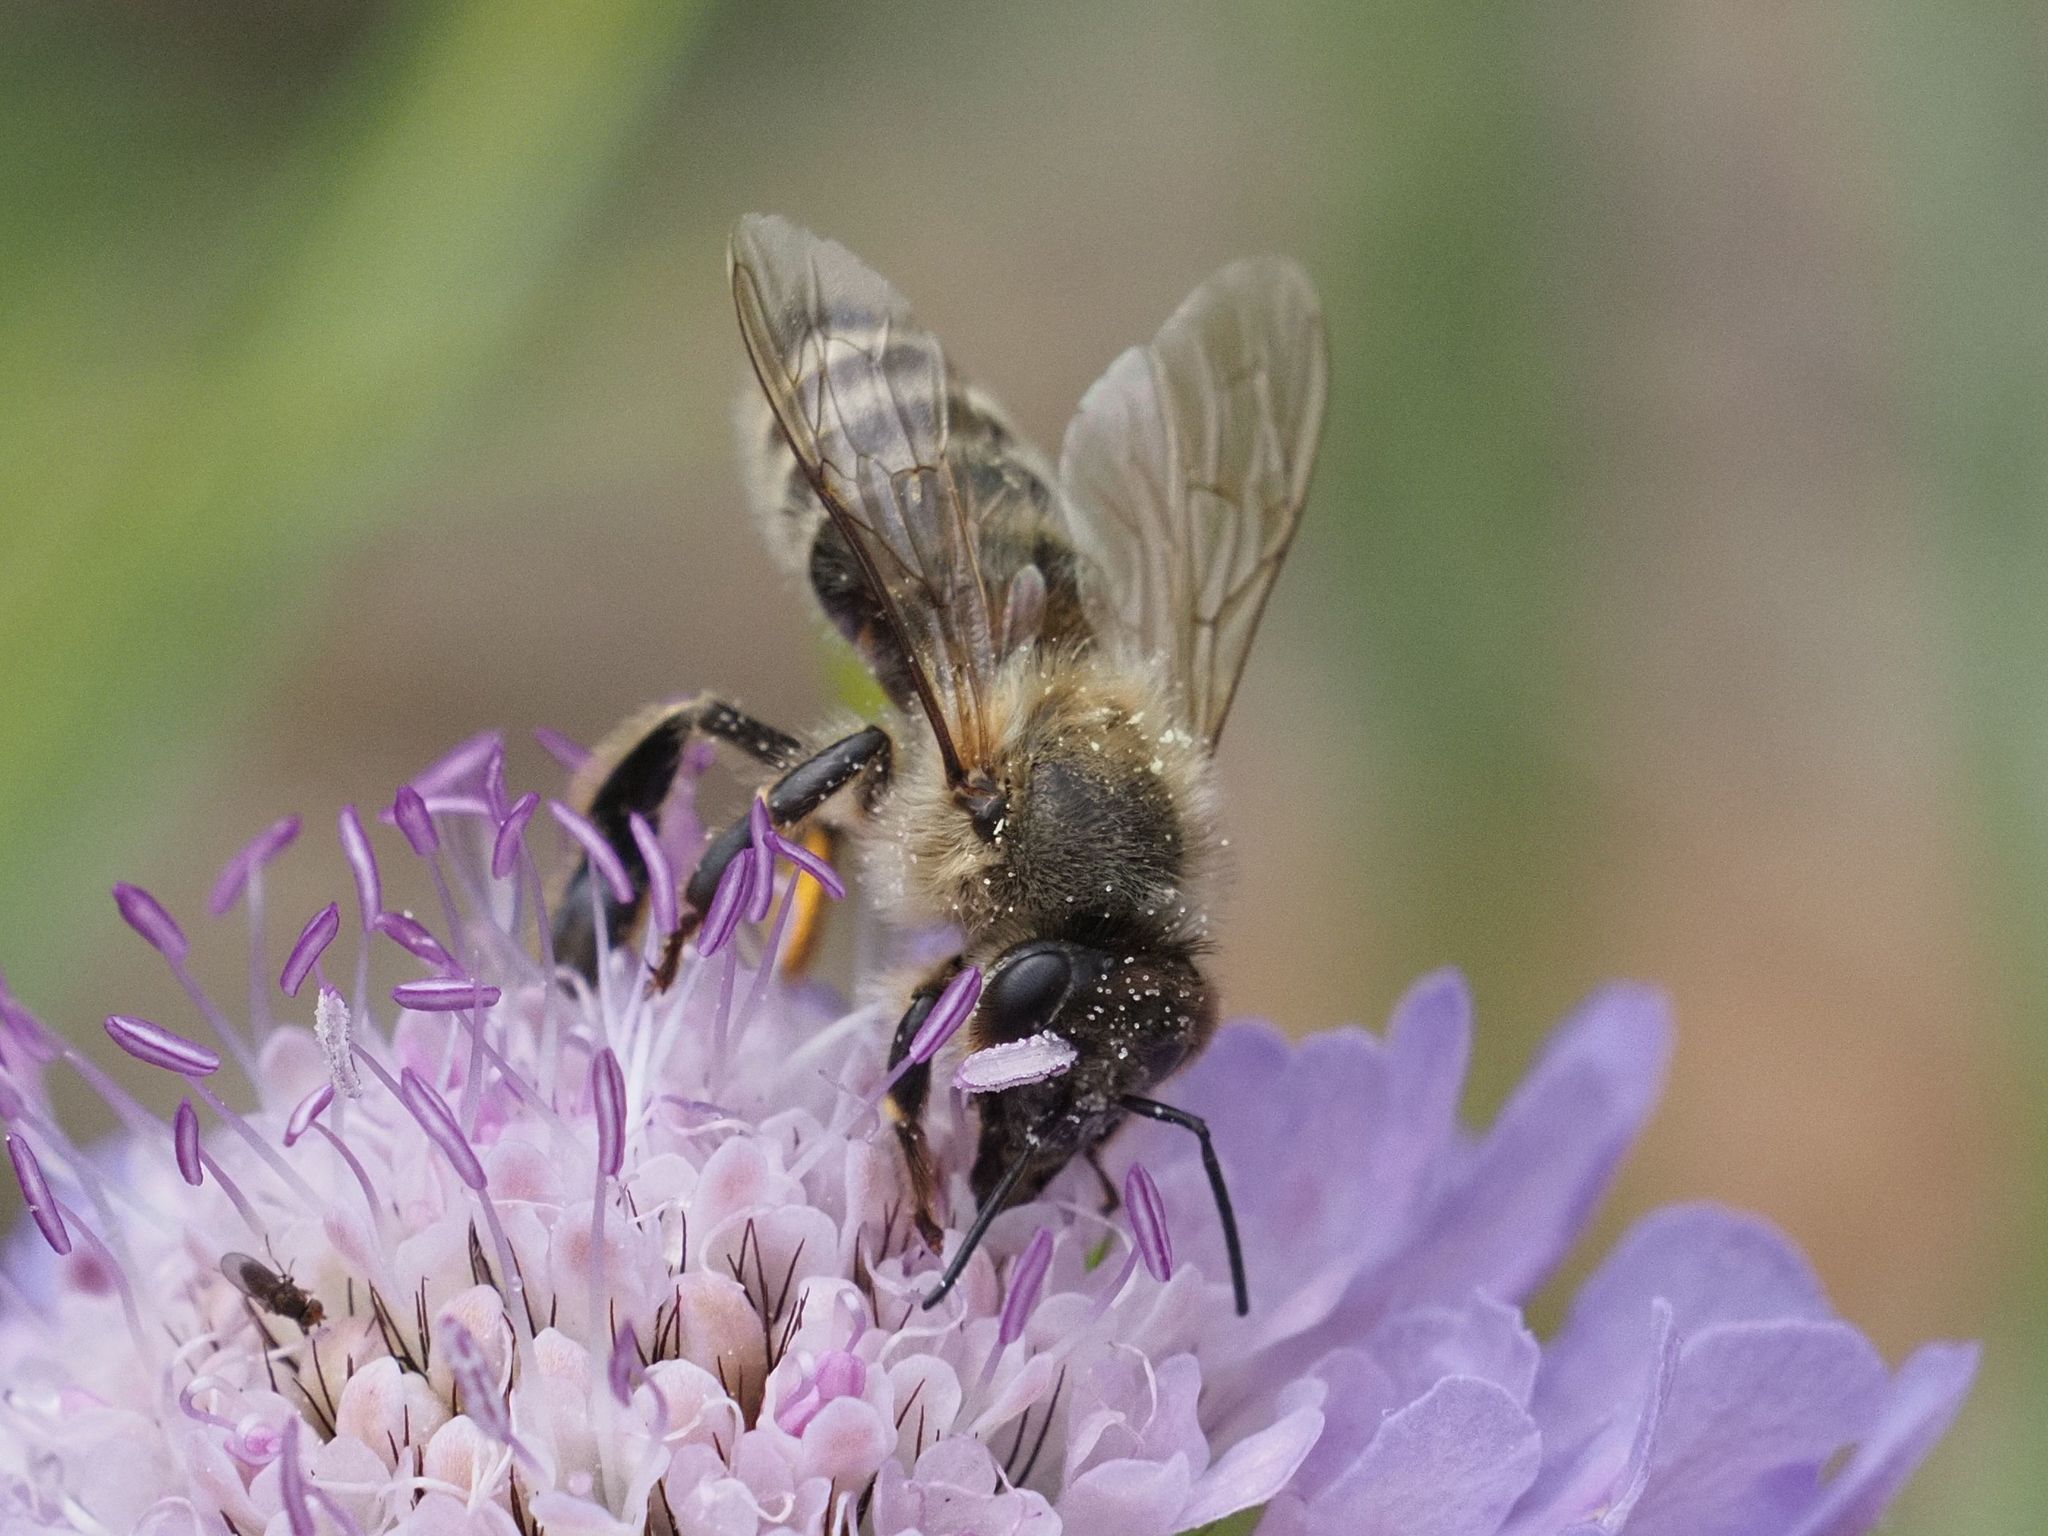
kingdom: Animalia
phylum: Arthropoda
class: Insecta
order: Hymenoptera
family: Apidae
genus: Apis
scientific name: Apis mellifera
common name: Honey bee
